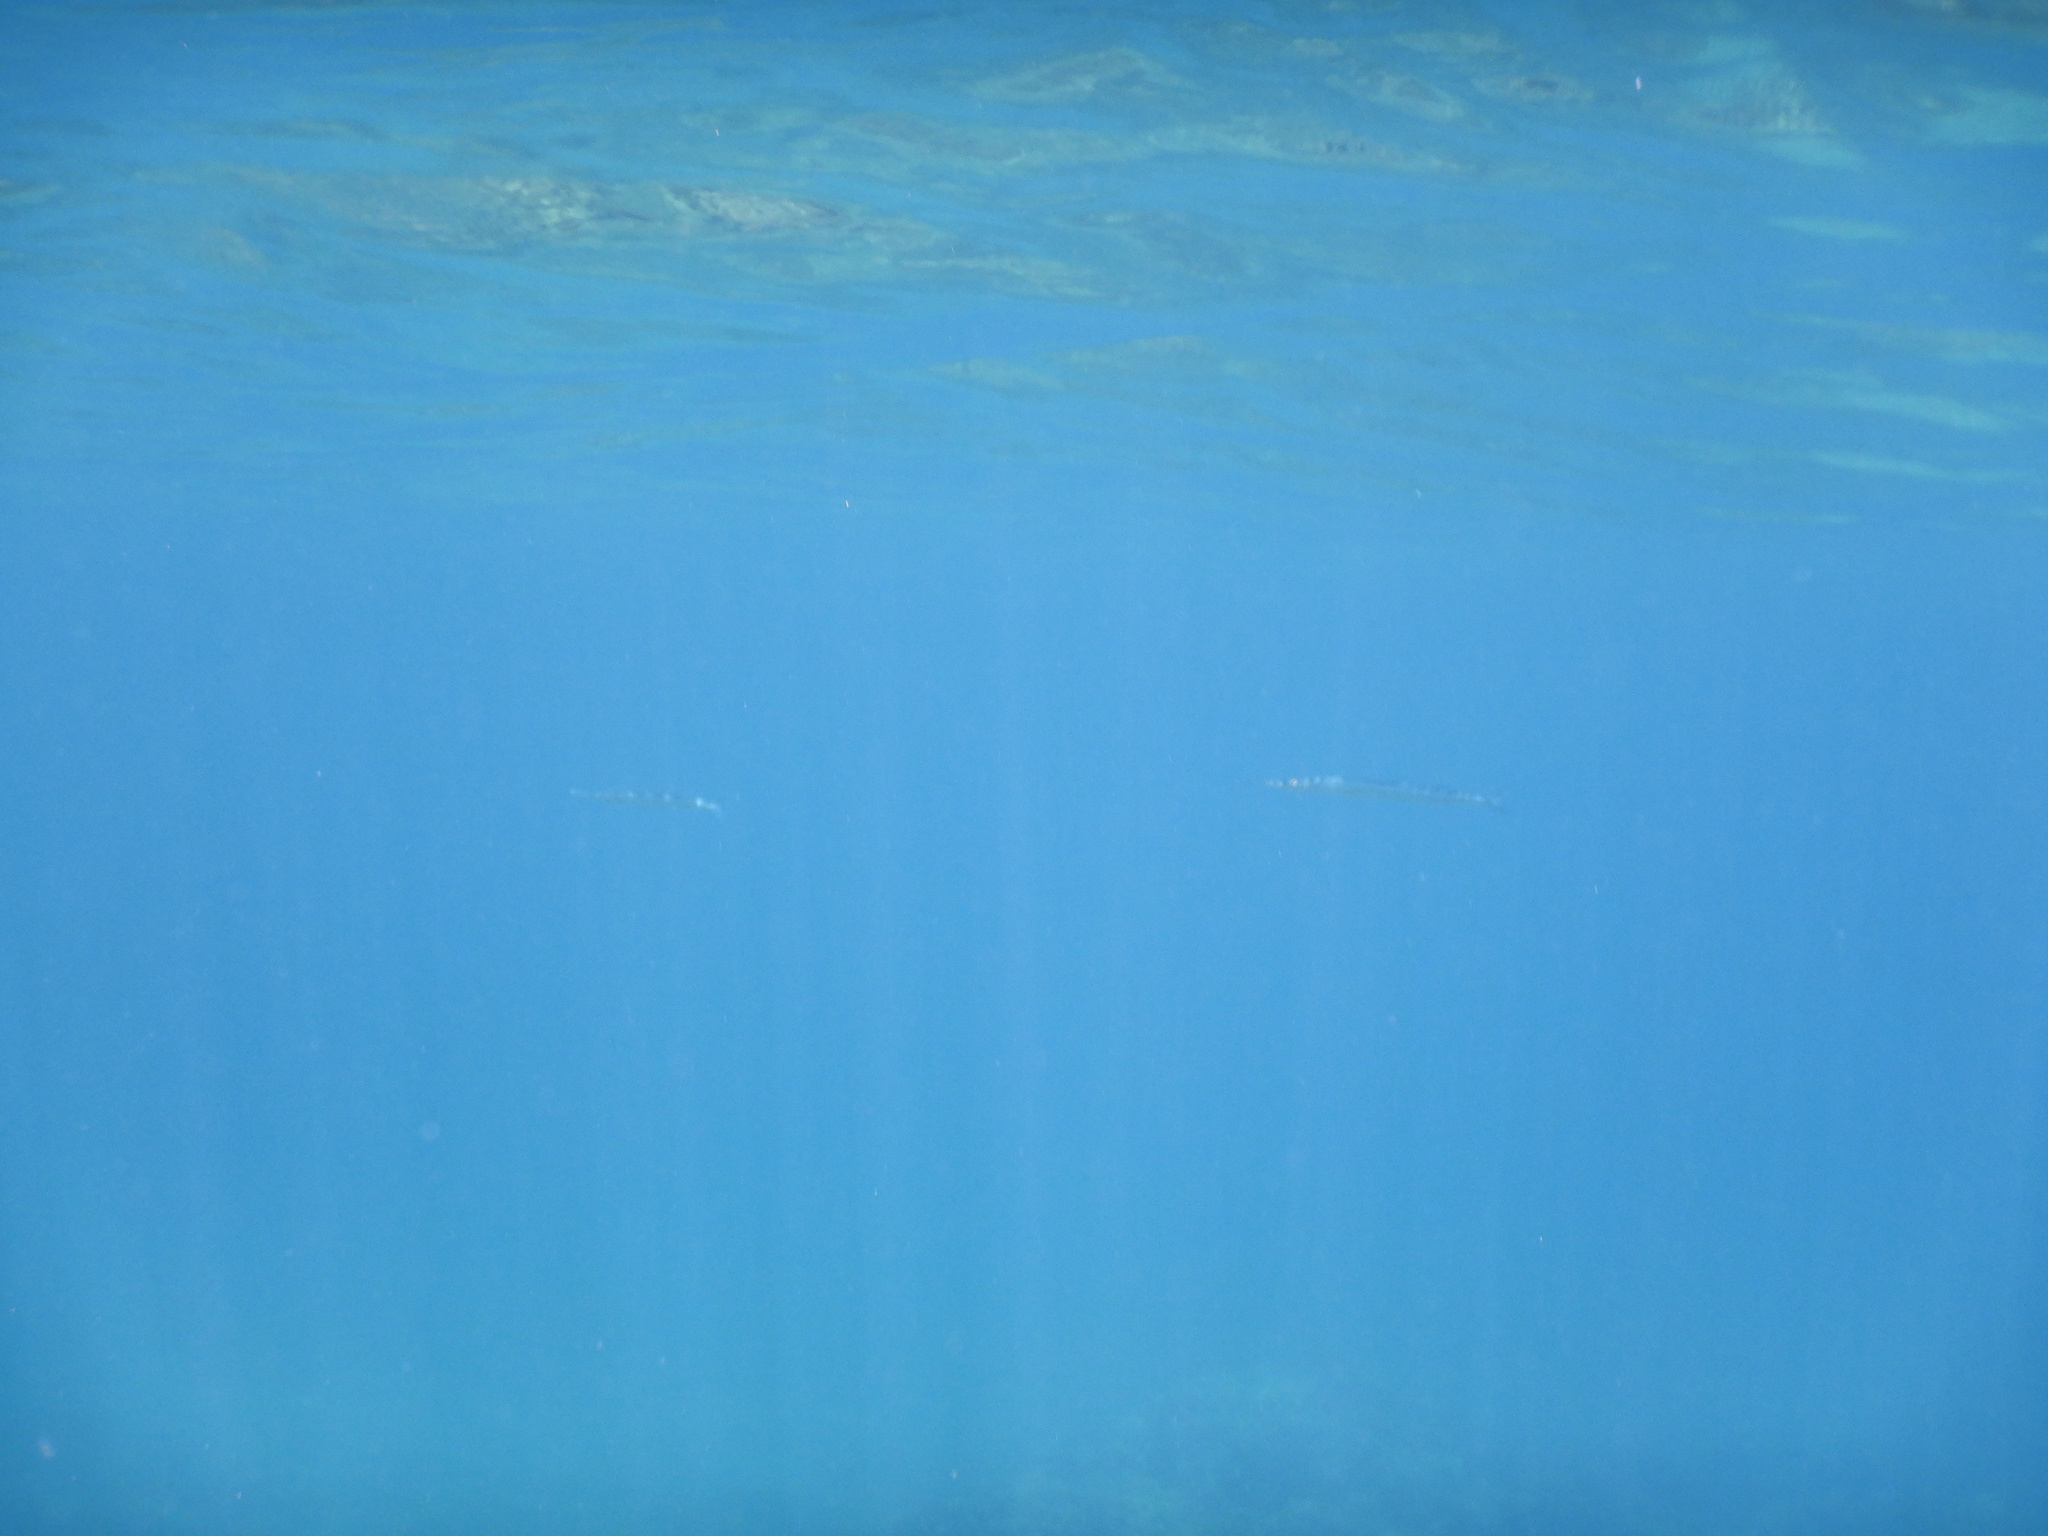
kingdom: Animalia
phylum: Chordata
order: Beloniformes
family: Belonidae
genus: Belone
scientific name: Belone
